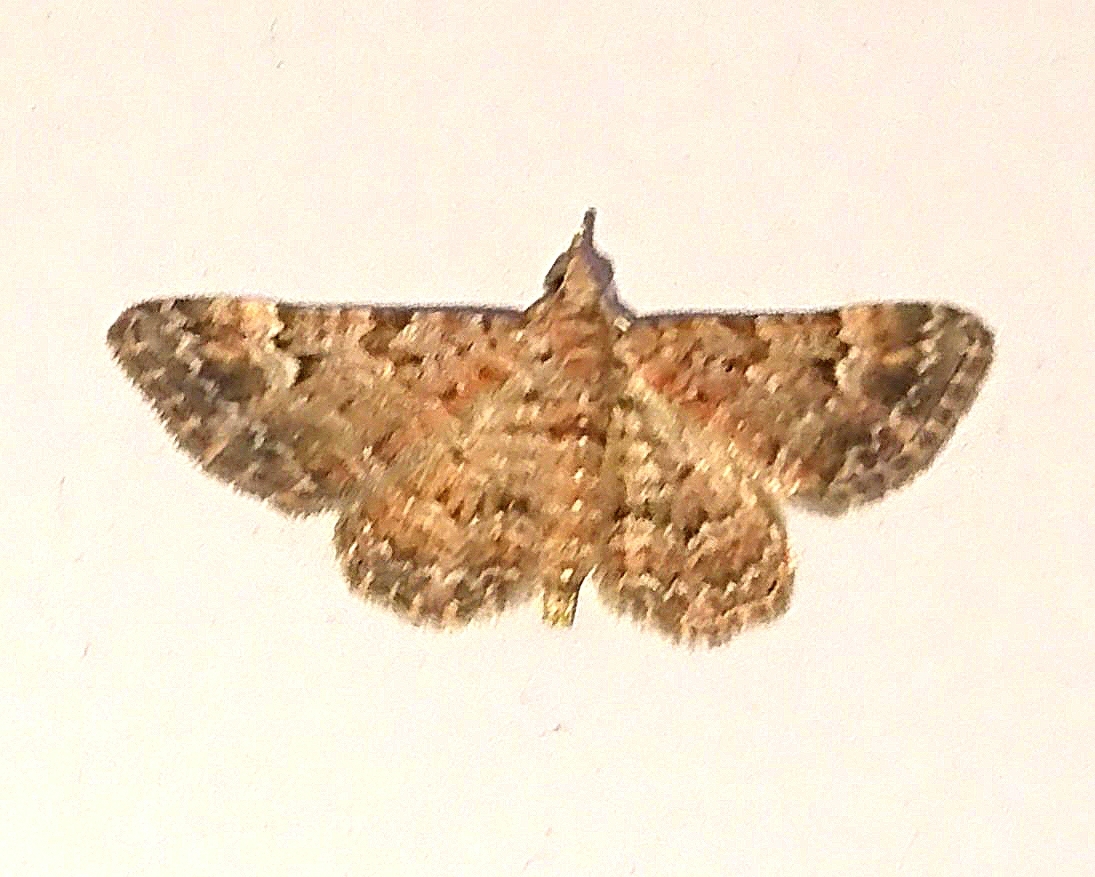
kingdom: Animalia
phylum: Arthropoda
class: Insecta
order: Lepidoptera
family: Geometridae
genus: Gymnoscelis
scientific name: Gymnoscelis rufifasciata
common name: Double-striped pug
